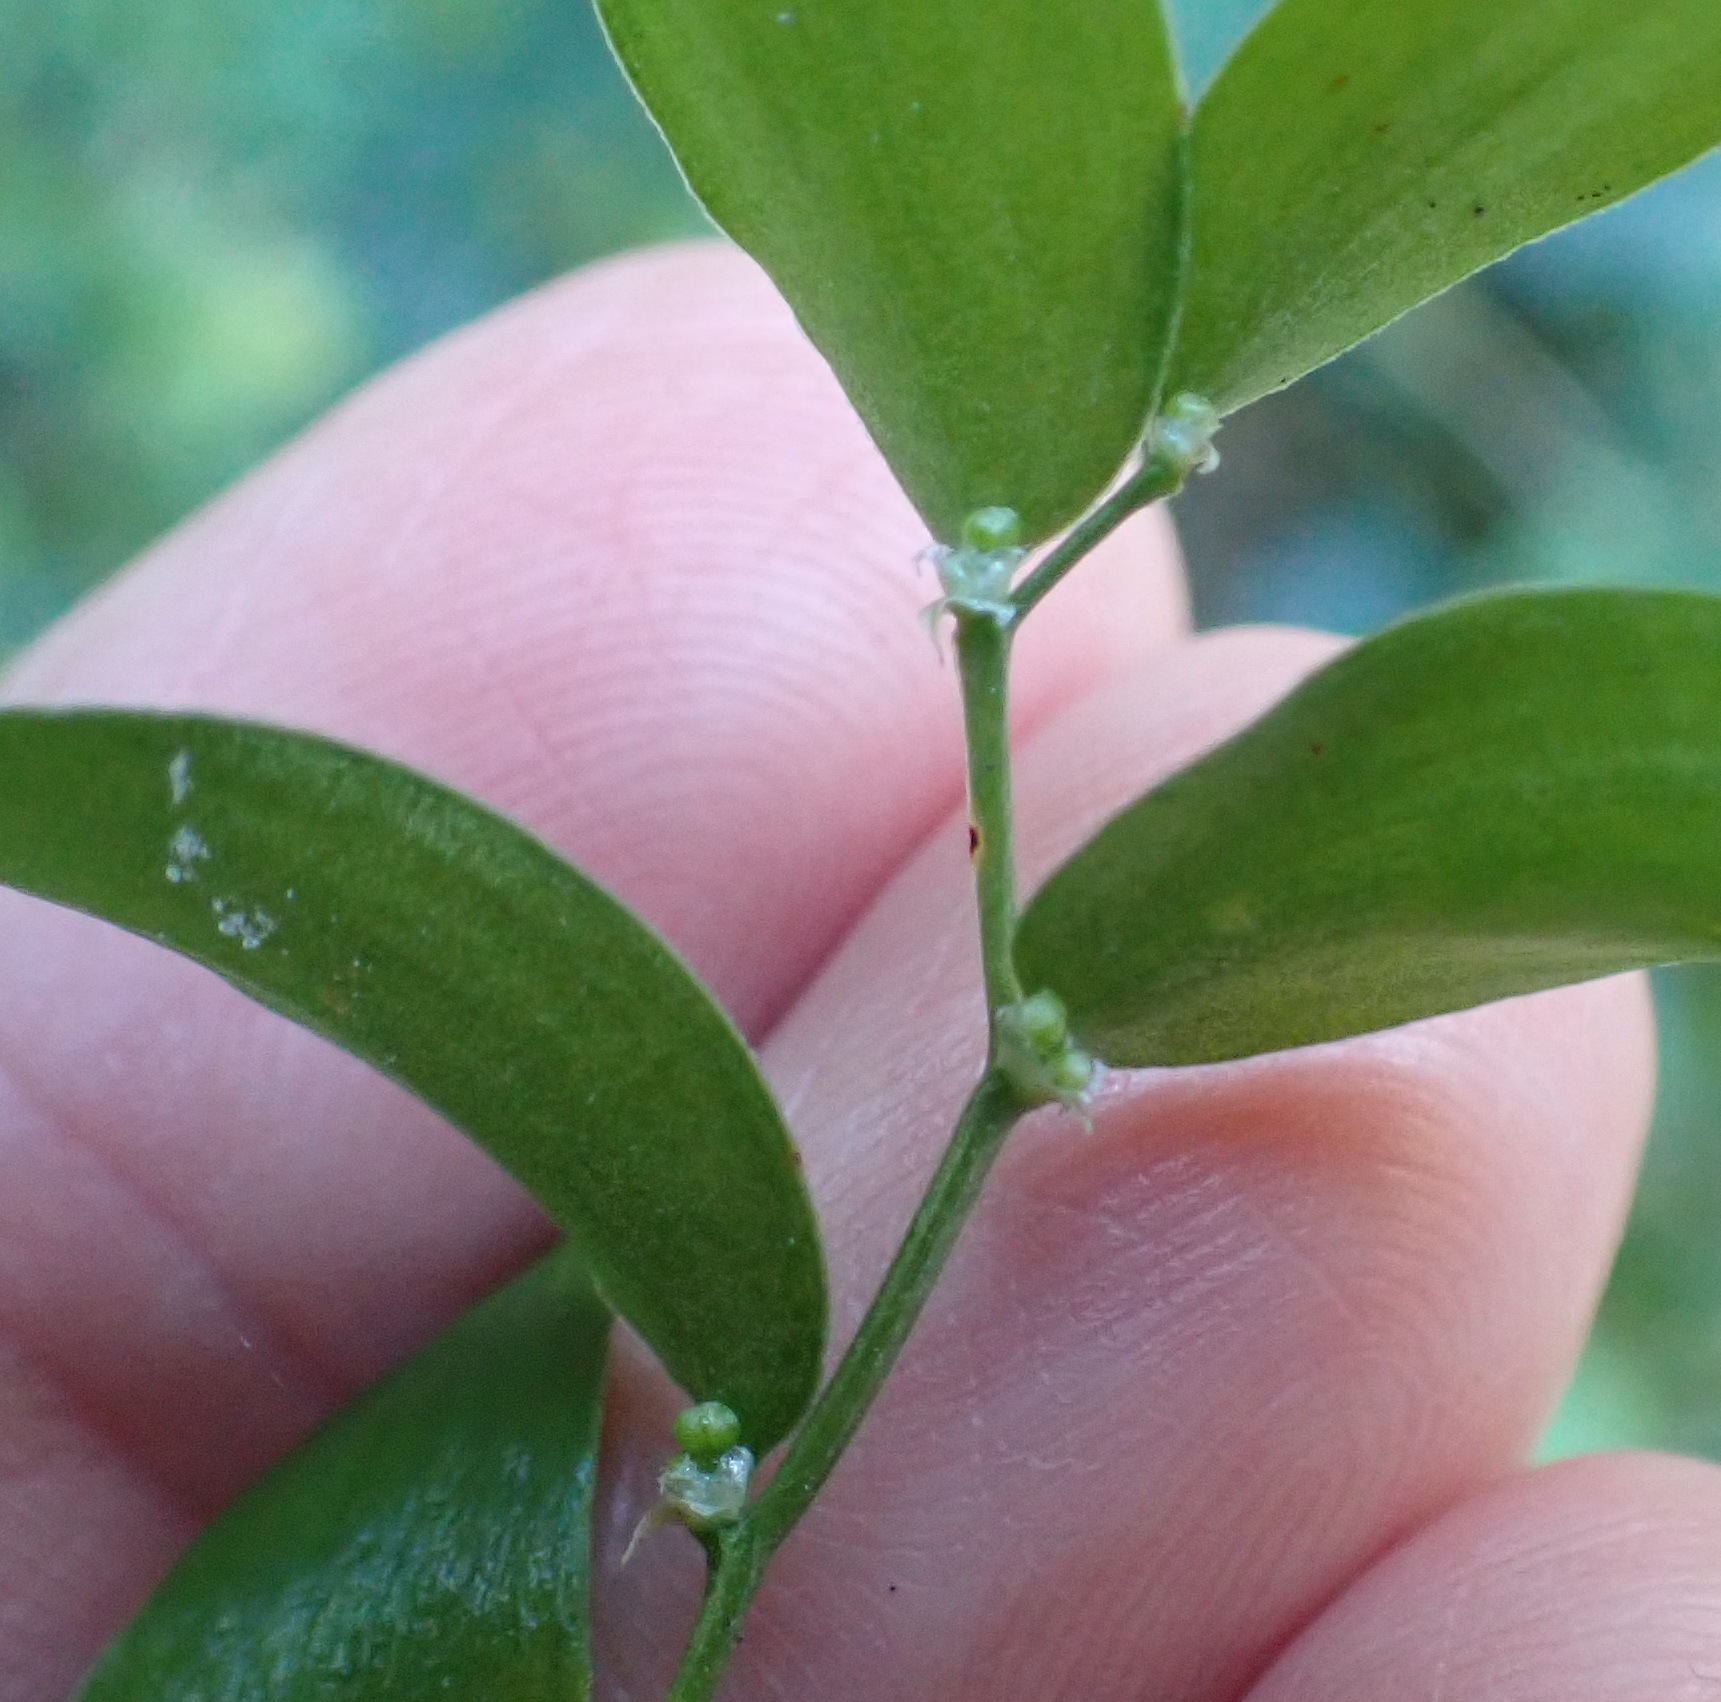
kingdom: Plantae
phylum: Tracheophyta
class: Liliopsida
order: Asparagales
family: Asparagaceae
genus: Asparagus
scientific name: Asparagus asparagoides
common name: African asparagus fern
